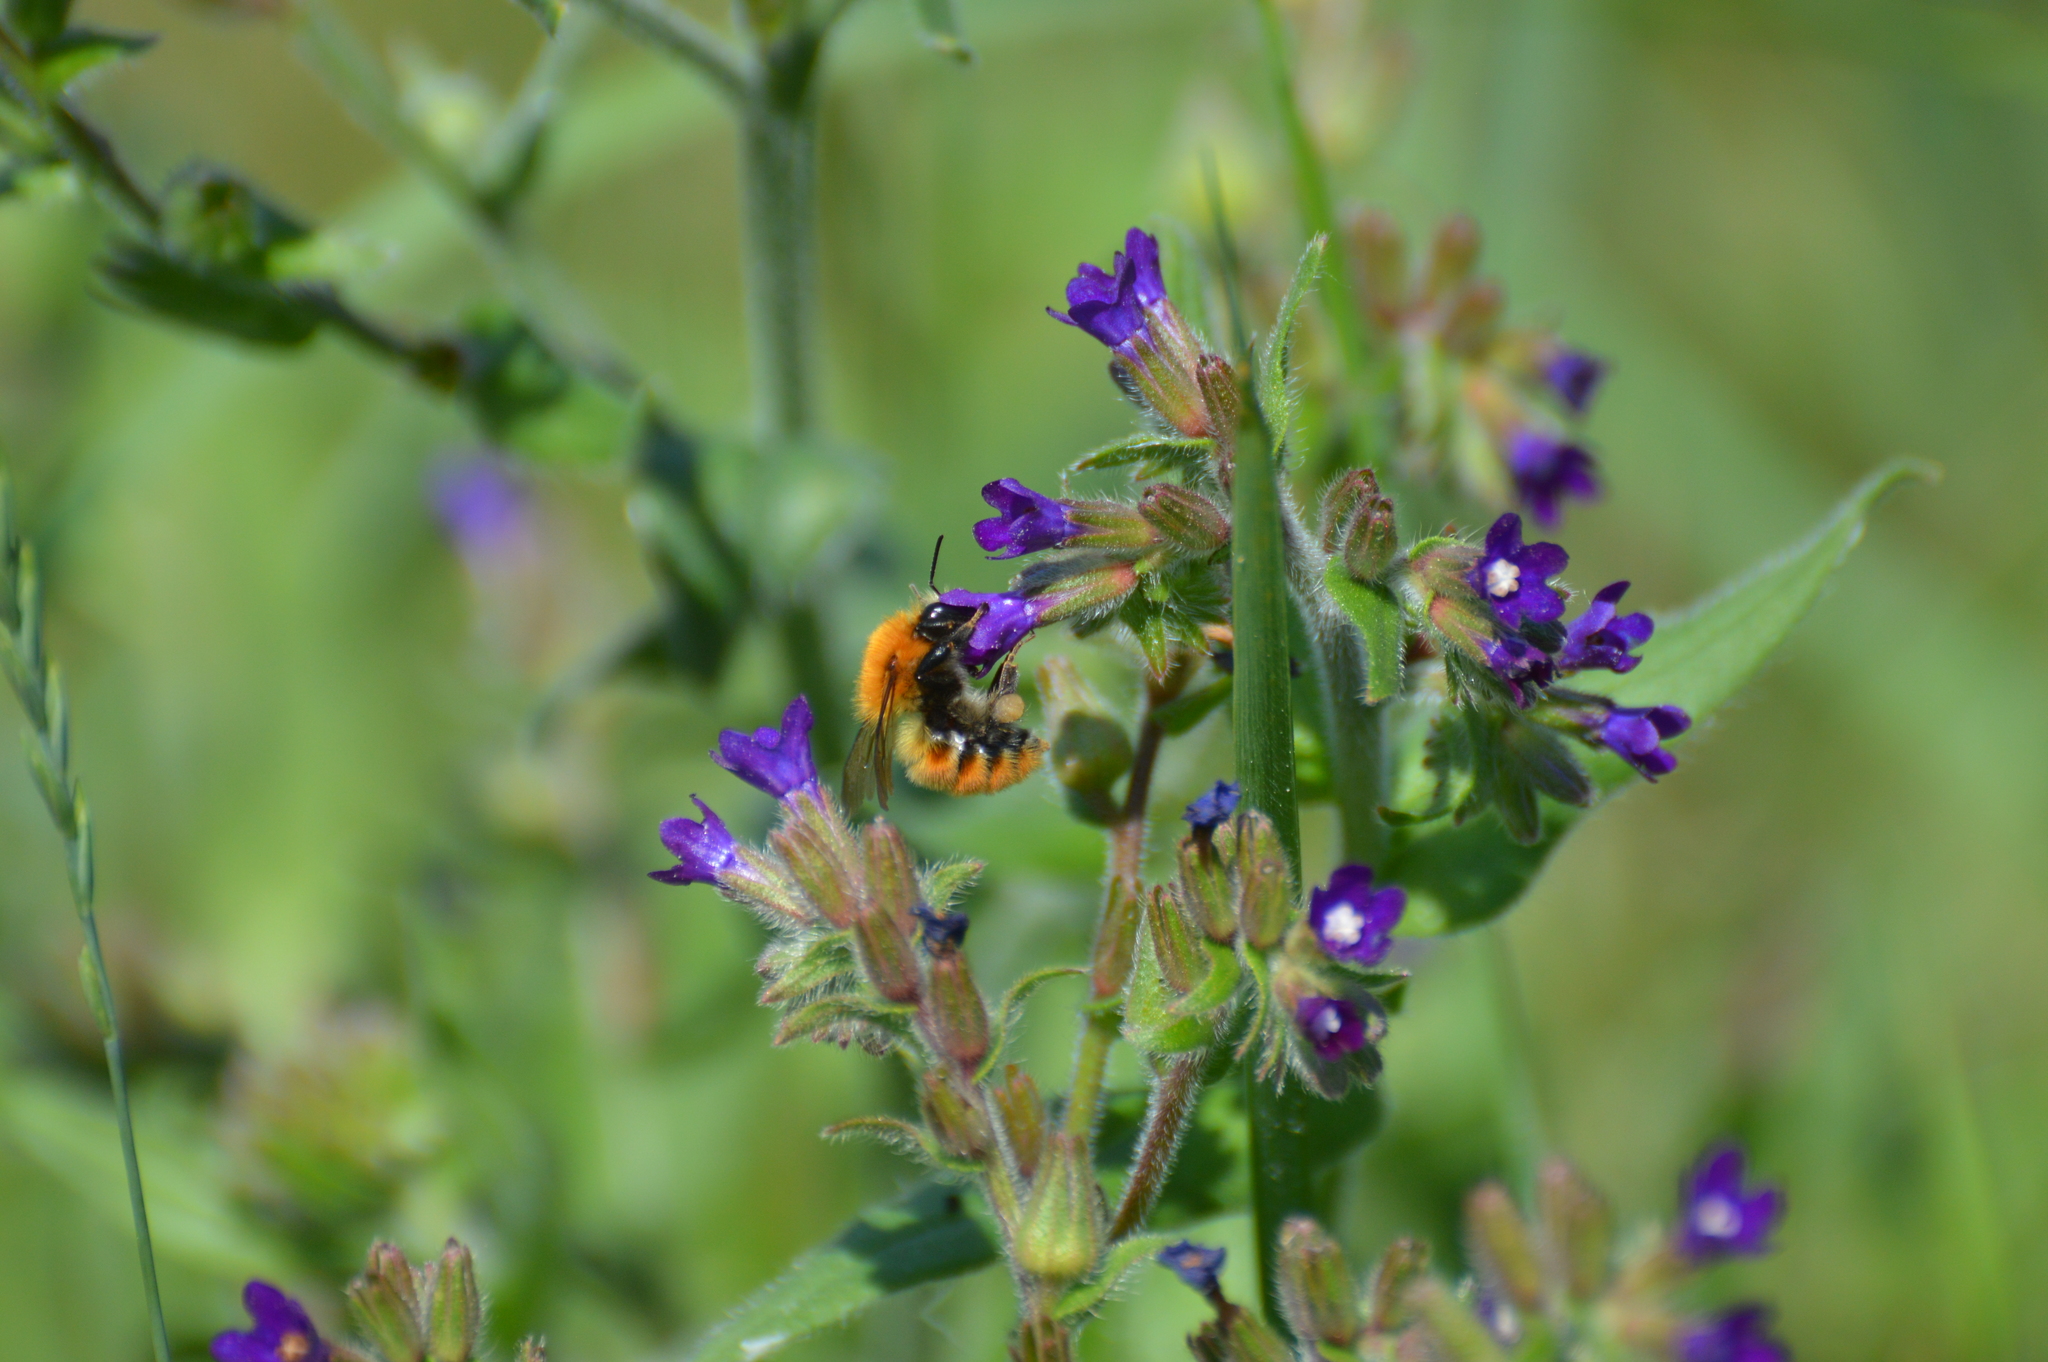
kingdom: Animalia
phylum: Arthropoda
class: Insecta
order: Hymenoptera
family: Apidae
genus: Bombus
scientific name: Bombus pascuorum
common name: Common carder bee
